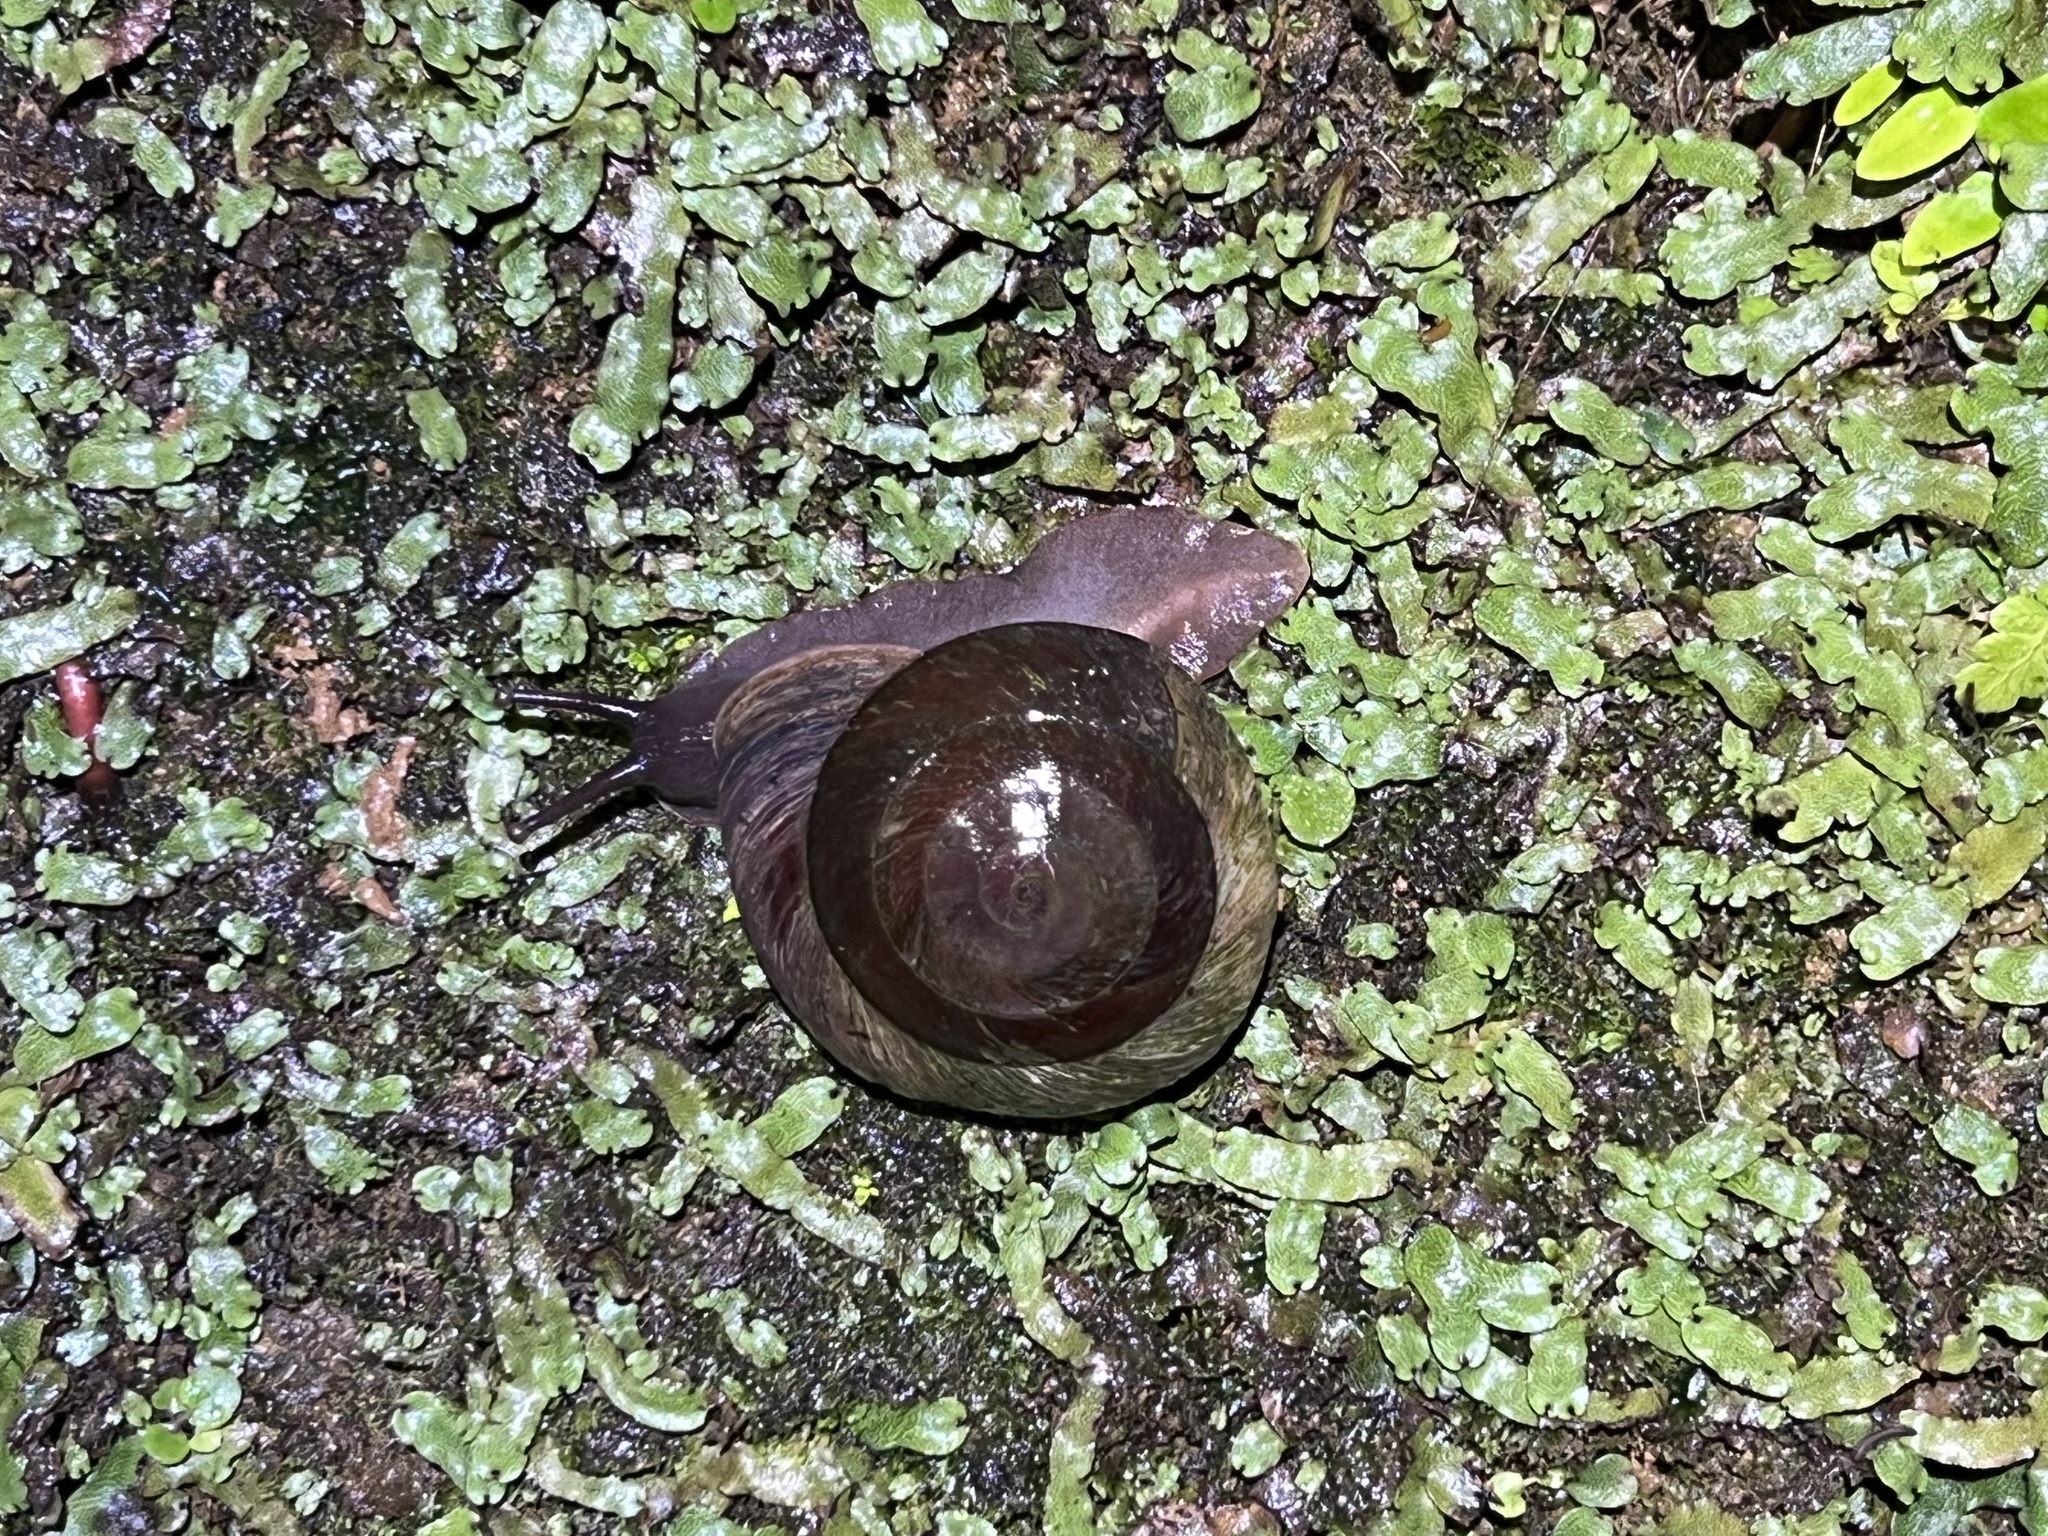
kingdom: Animalia
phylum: Mollusca
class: Gastropoda
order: Stylommatophora
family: Solaropsidae
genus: Caracolus
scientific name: Caracolus carocolla
